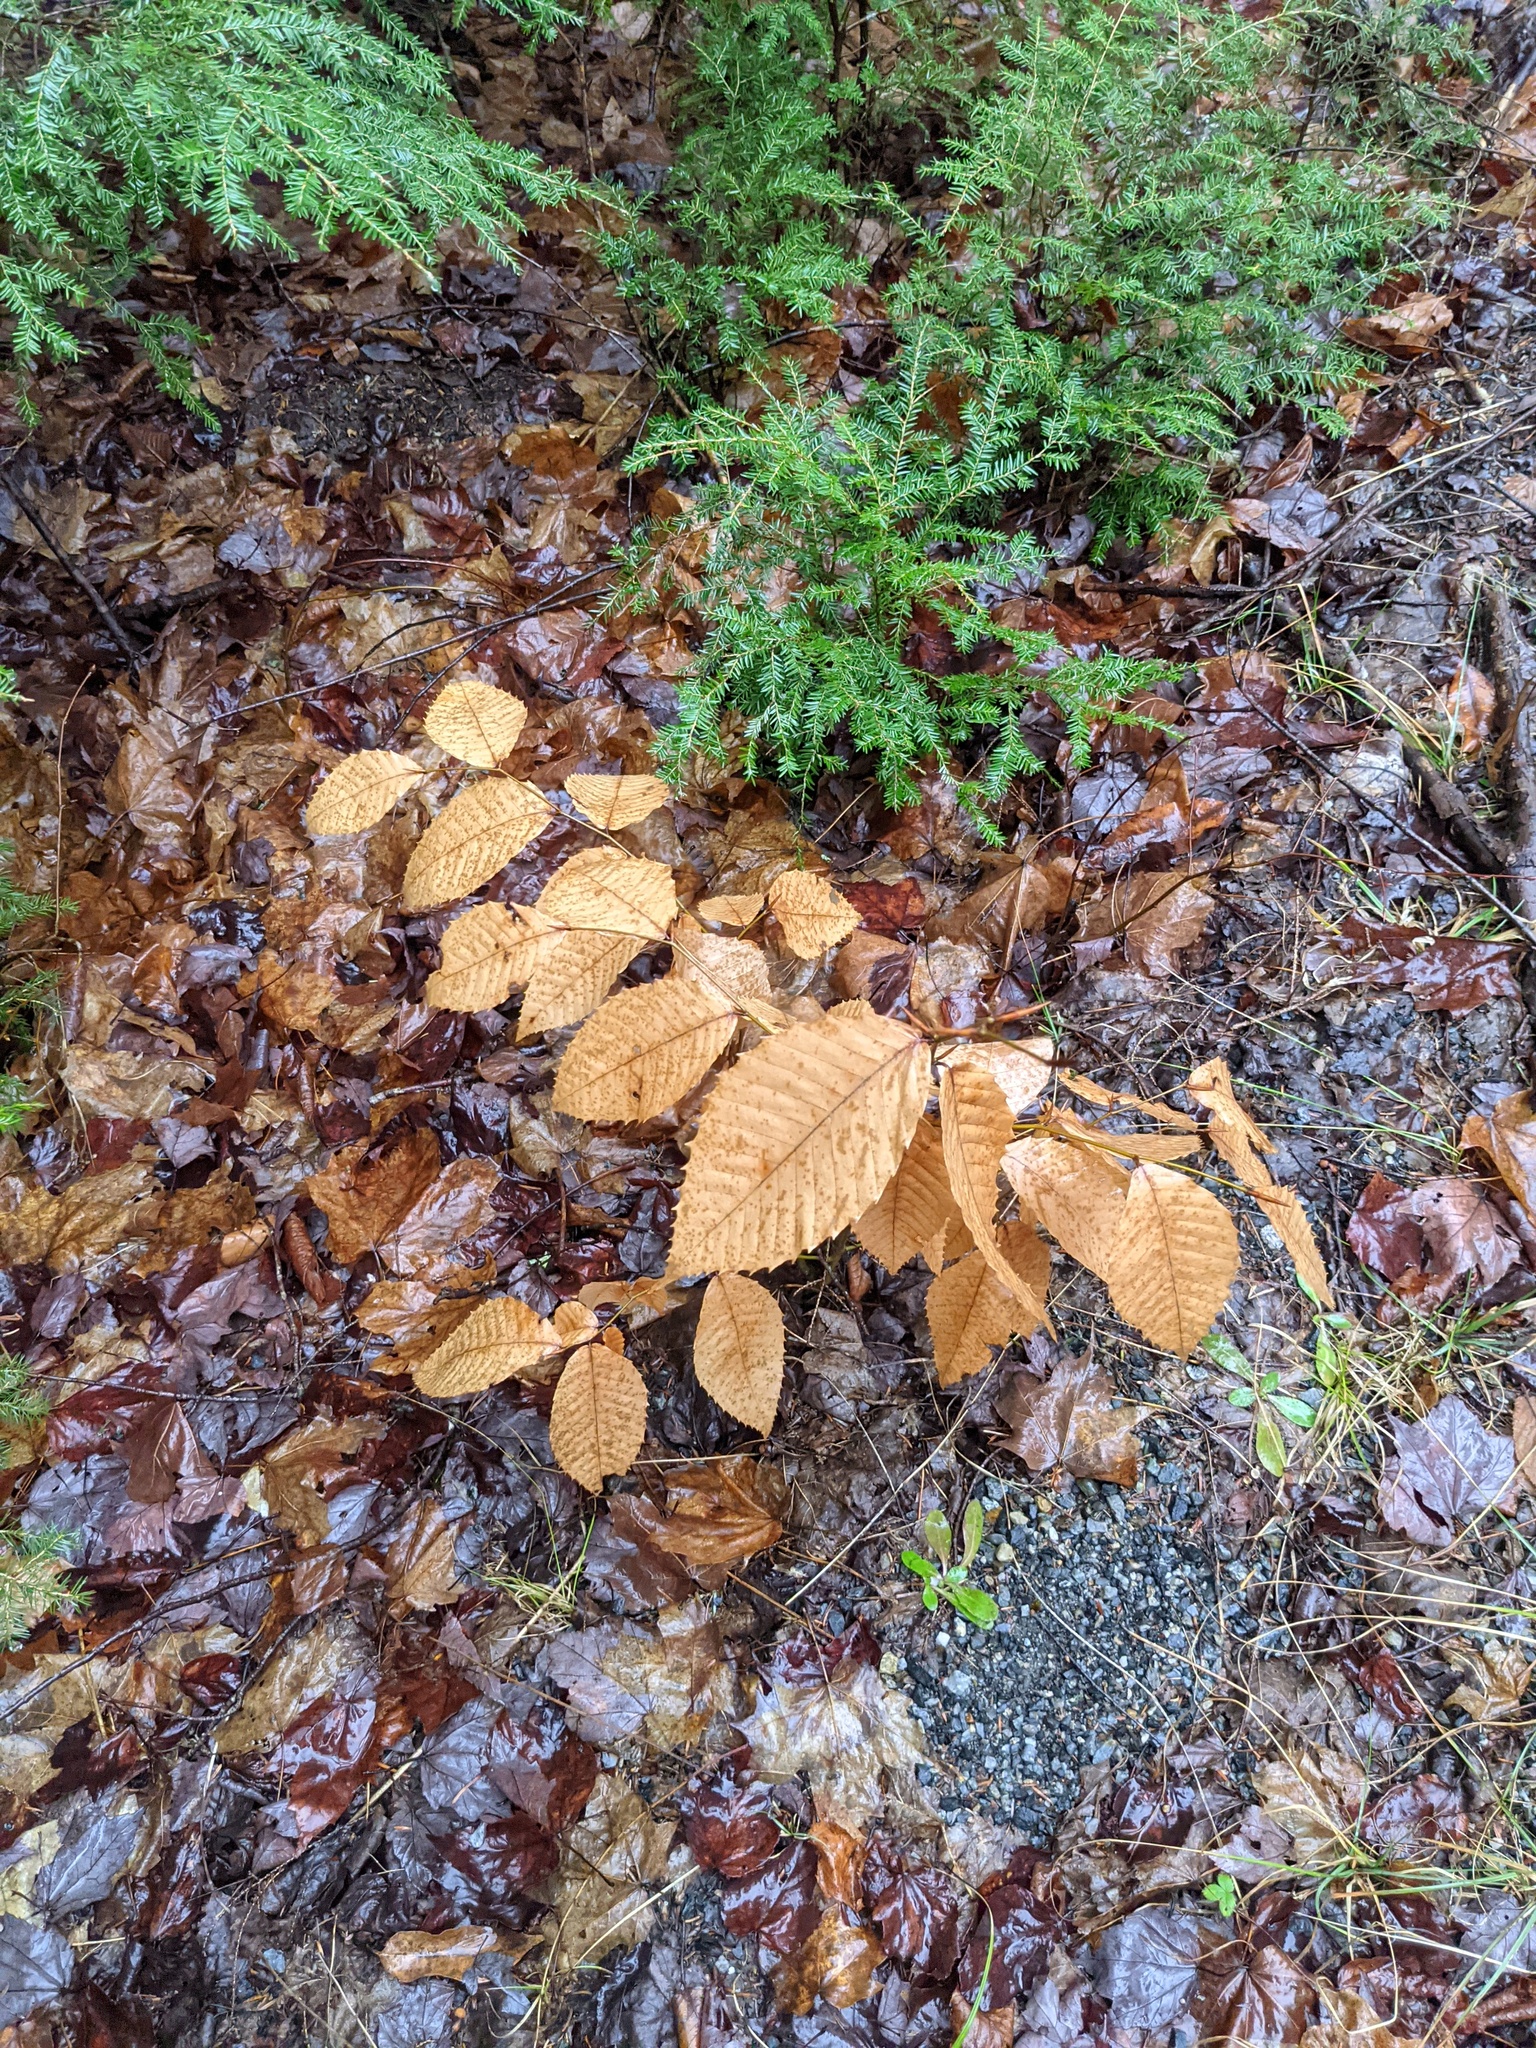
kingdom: Plantae
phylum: Tracheophyta
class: Magnoliopsida
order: Fagales
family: Fagaceae
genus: Fagus
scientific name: Fagus grandifolia
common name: American beech
